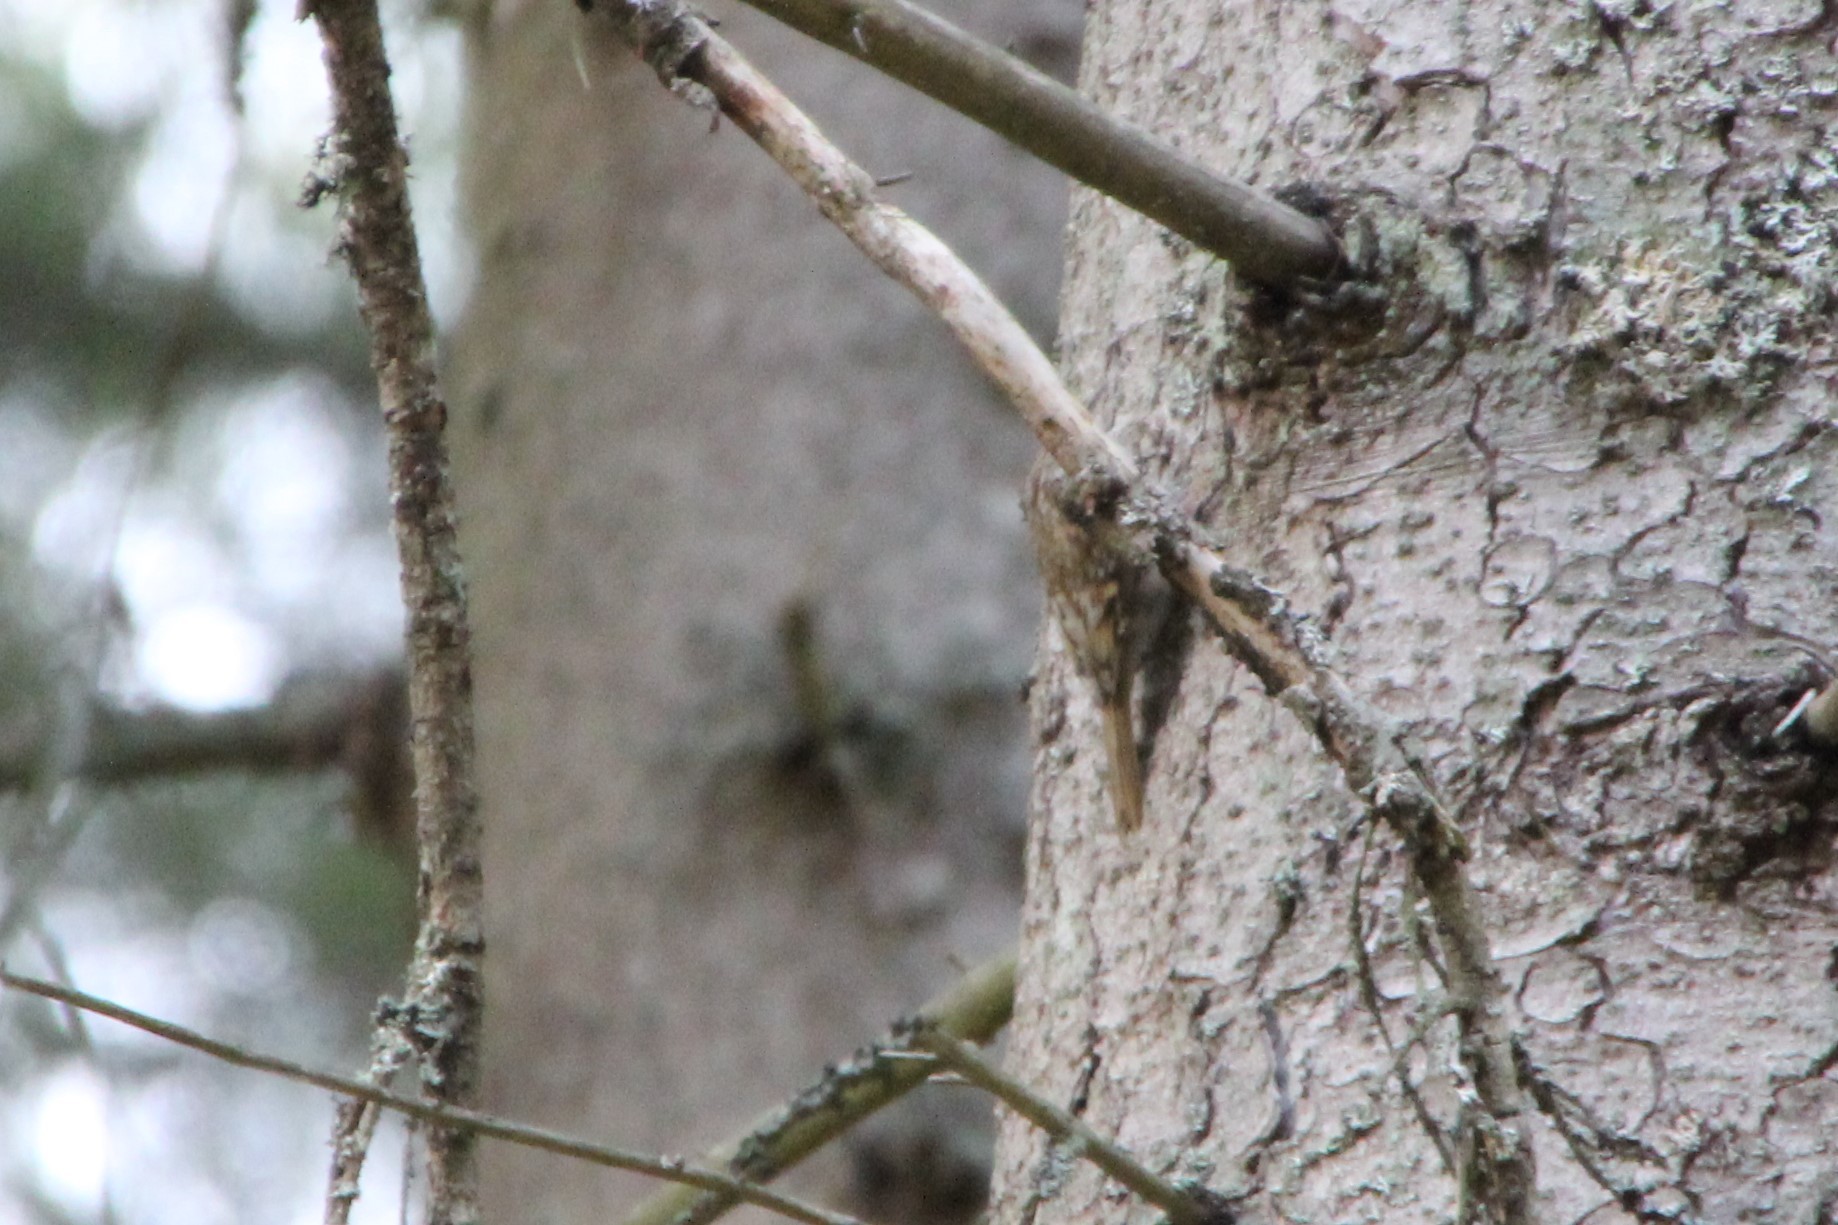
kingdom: Animalia
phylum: Chordata
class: Aves
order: Passeriformes
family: Certhiidae
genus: Certhia
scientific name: Certhia familiaris
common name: Eurasian treecreeper
